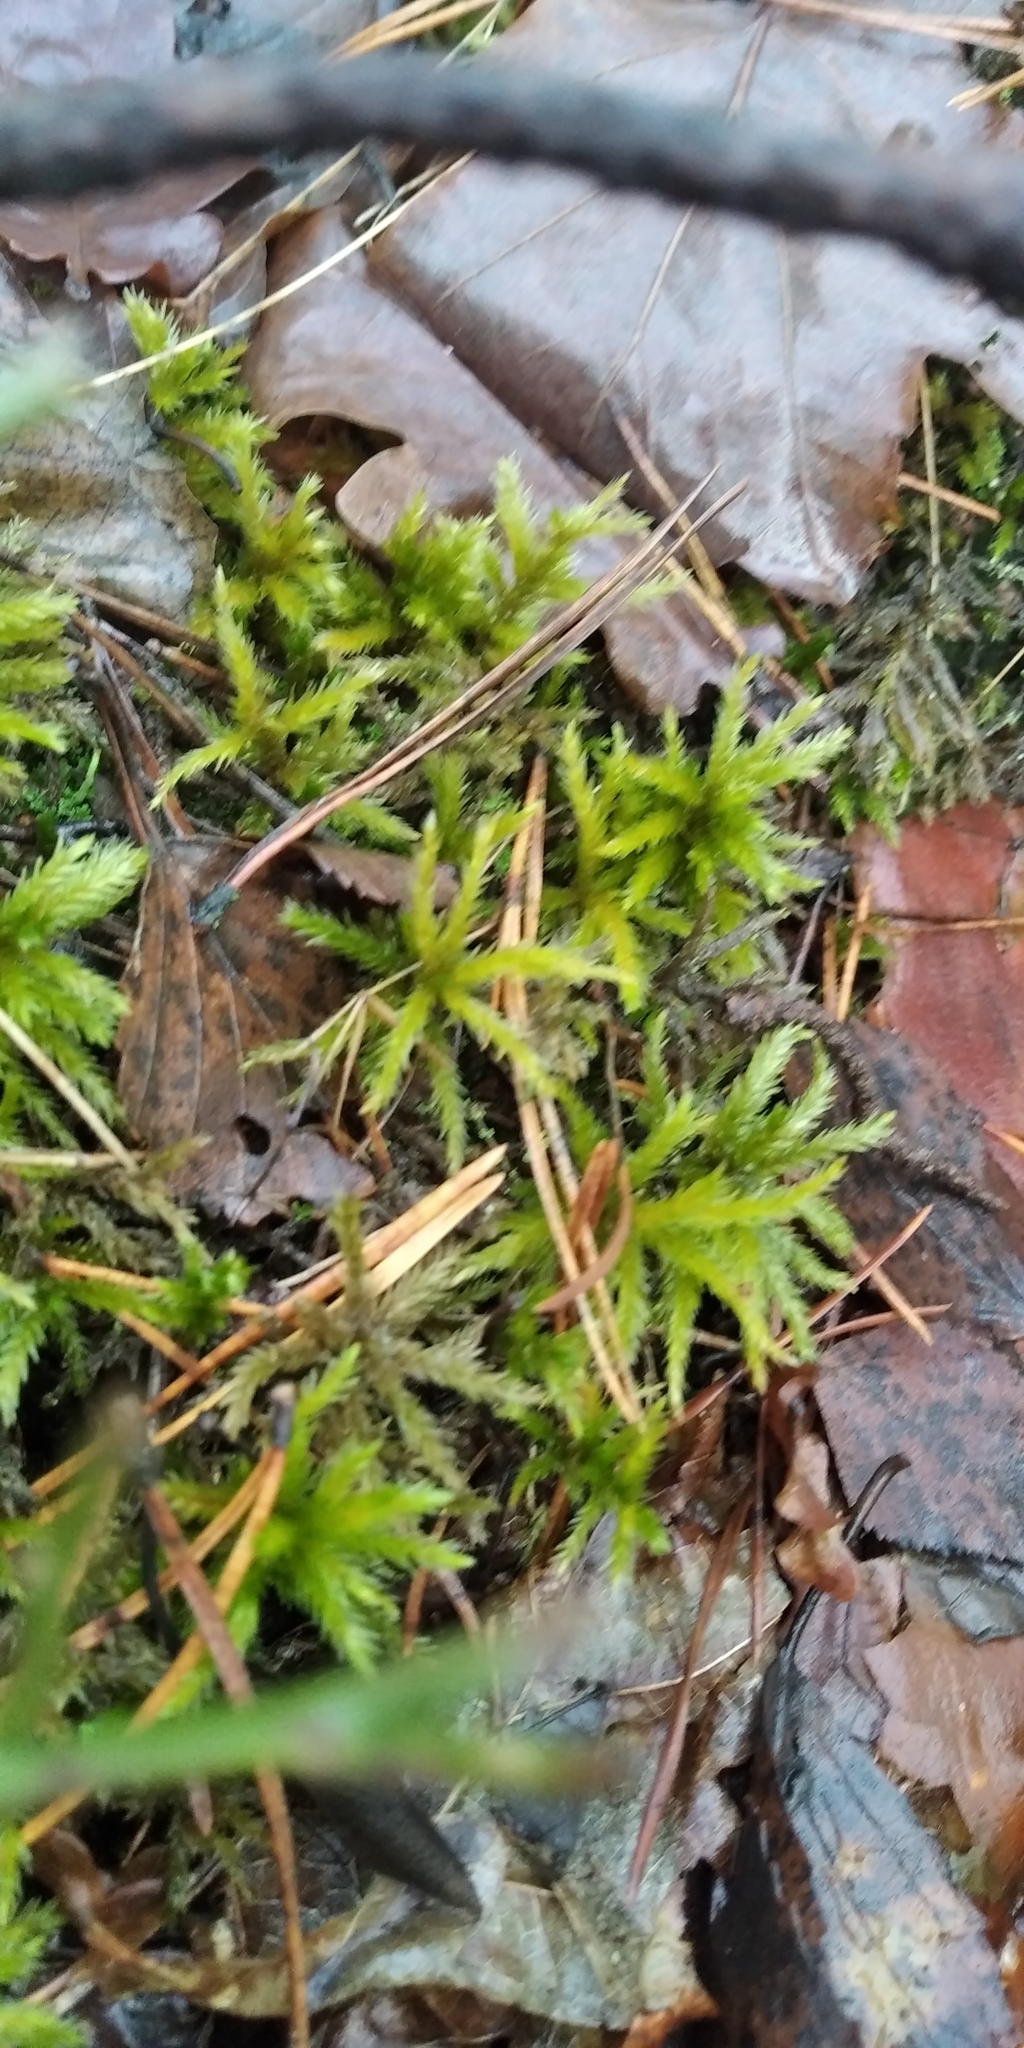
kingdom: Plantae
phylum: Bryophyta
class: Bryopsida
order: Hypnales
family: Climaciaceae
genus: Climacium
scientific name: Climacium dendroides
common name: Northern tree moss
